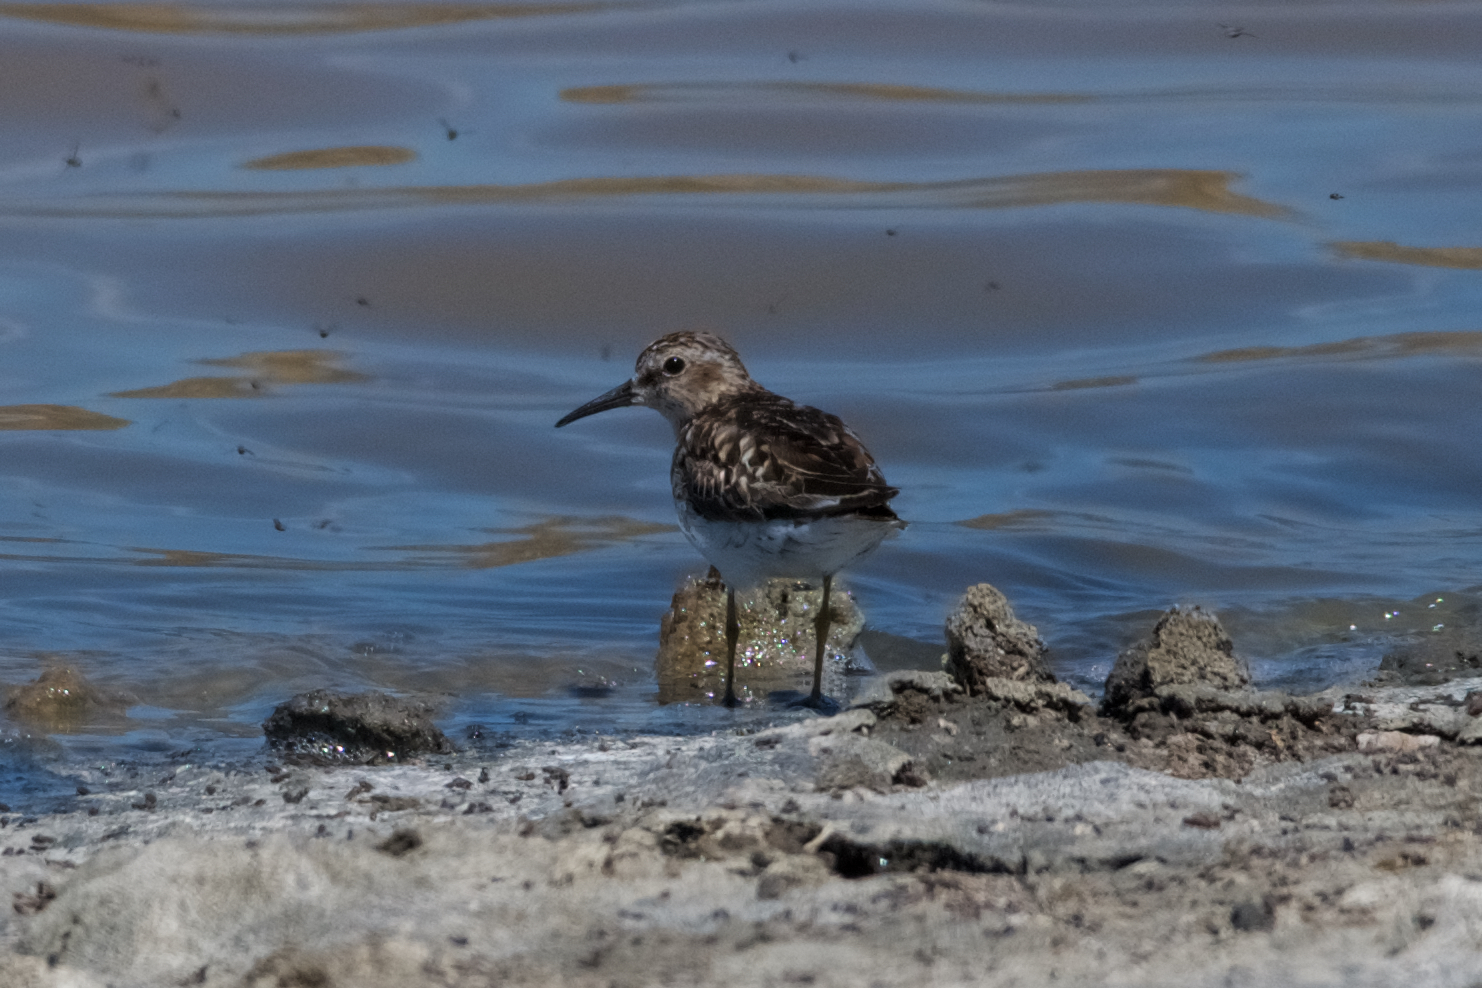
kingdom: Animalia
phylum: Chordata
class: Aves
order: Charadriiformes
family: Scolopacidae
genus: Calidris
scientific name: Calidris minutilla
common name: Least sandpiper
